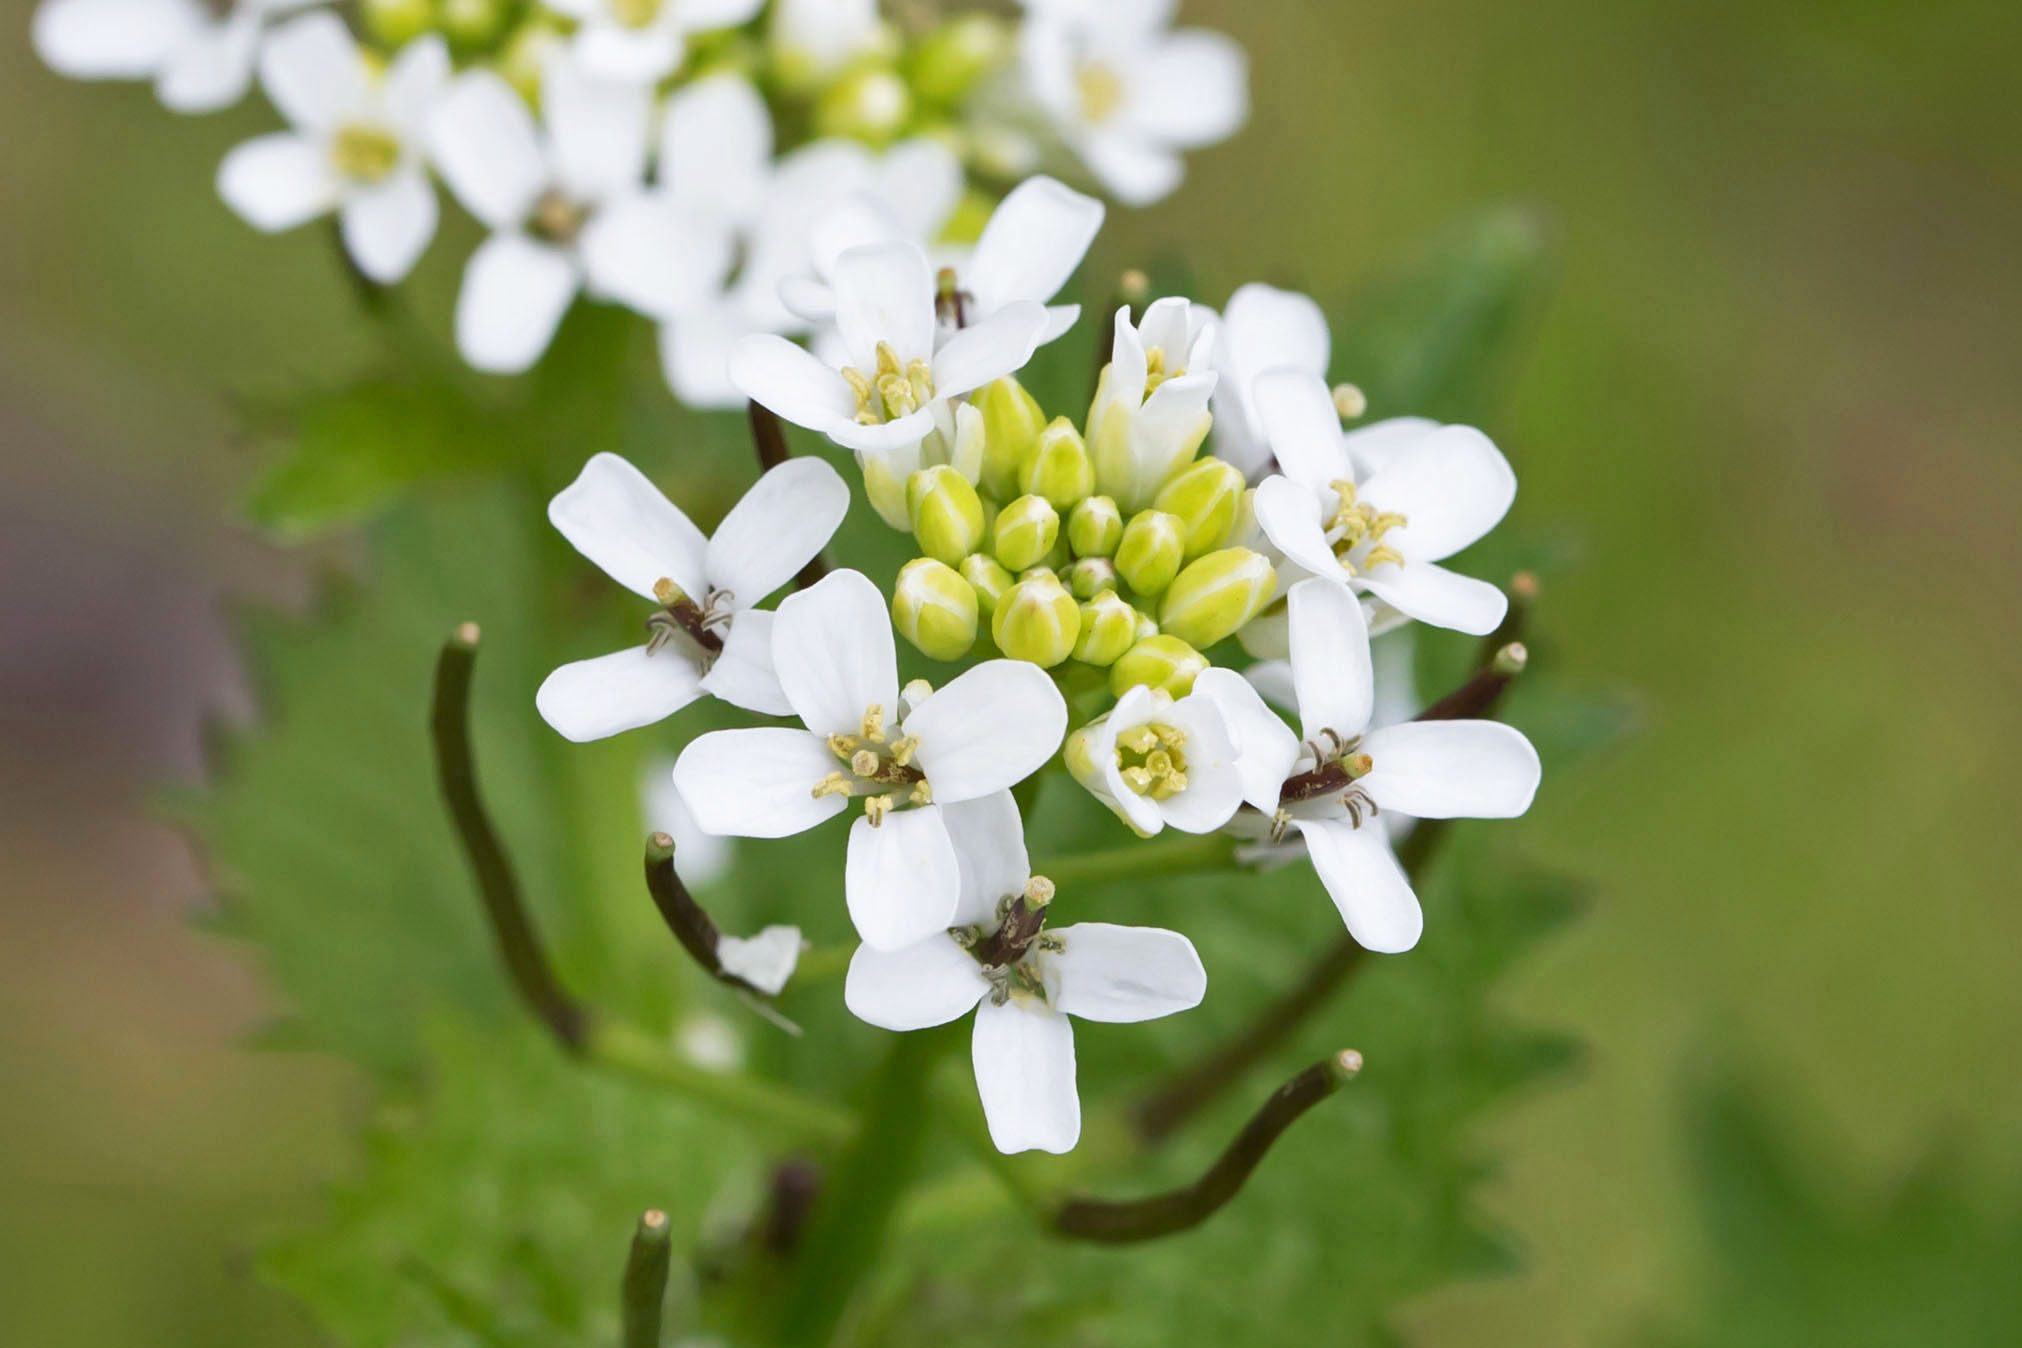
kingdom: Plantae
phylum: Tracheophyta
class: Magnoliopsida
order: Brassicales
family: Brassicaceae
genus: Alliaria
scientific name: Alliaria petiolata
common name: Garlic mustard
